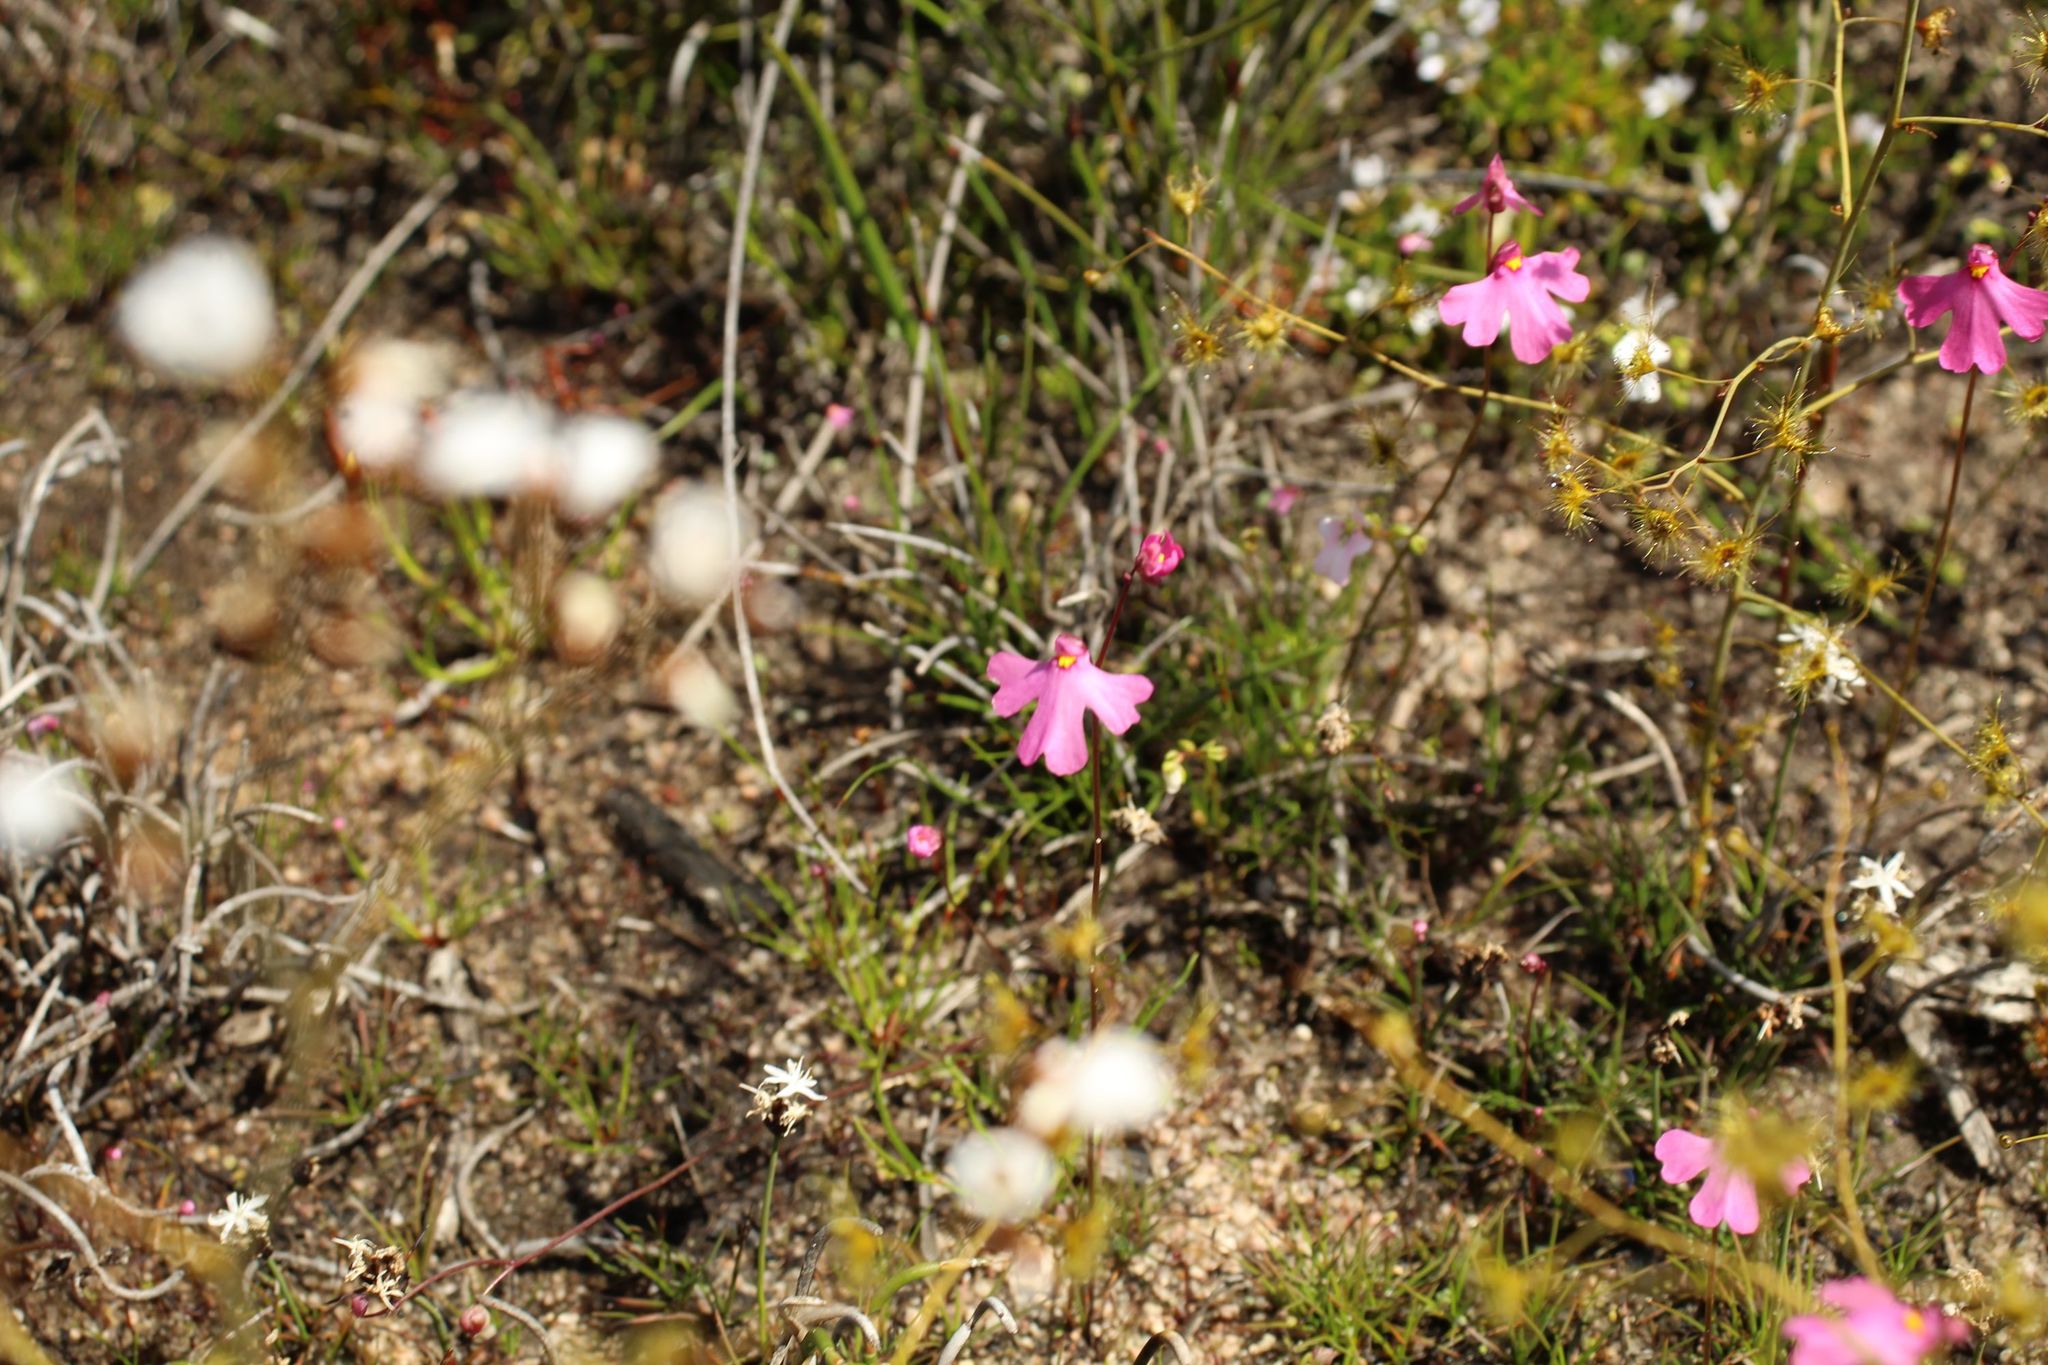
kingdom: Plantae
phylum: Tracheophyta
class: Magnoliopsida
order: Lamiales
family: Lentibulariaceae
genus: Utricularia
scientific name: Utricularia multifida
